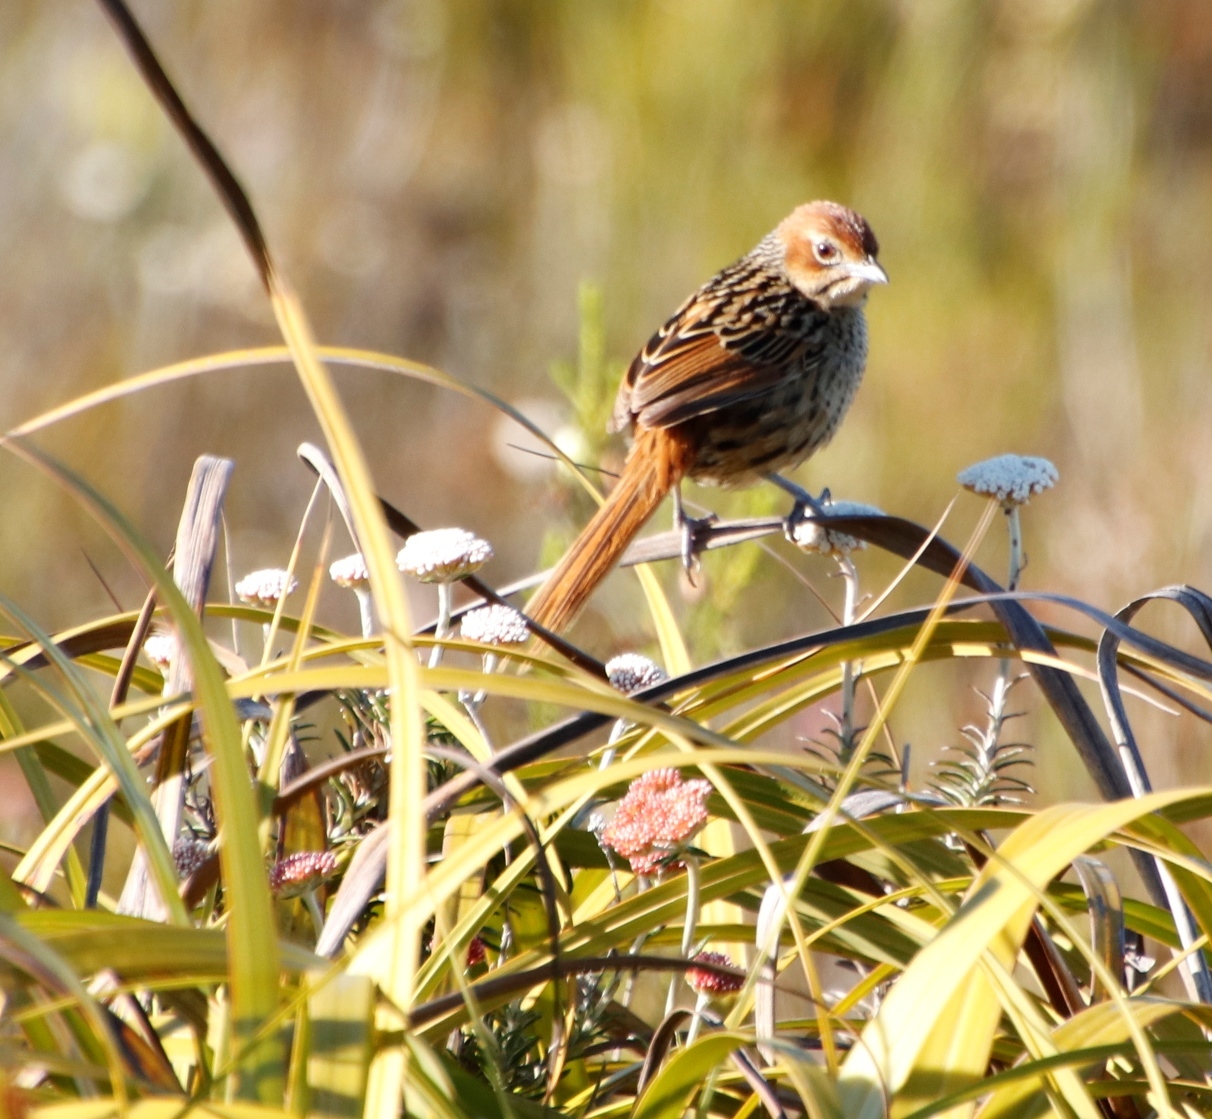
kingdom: Animalia
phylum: Chordata
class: Aves
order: Passeriformes
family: Macrosphenidae
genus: Sphenoeacus
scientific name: Sphenoeacus afer
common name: Cape grassbird
